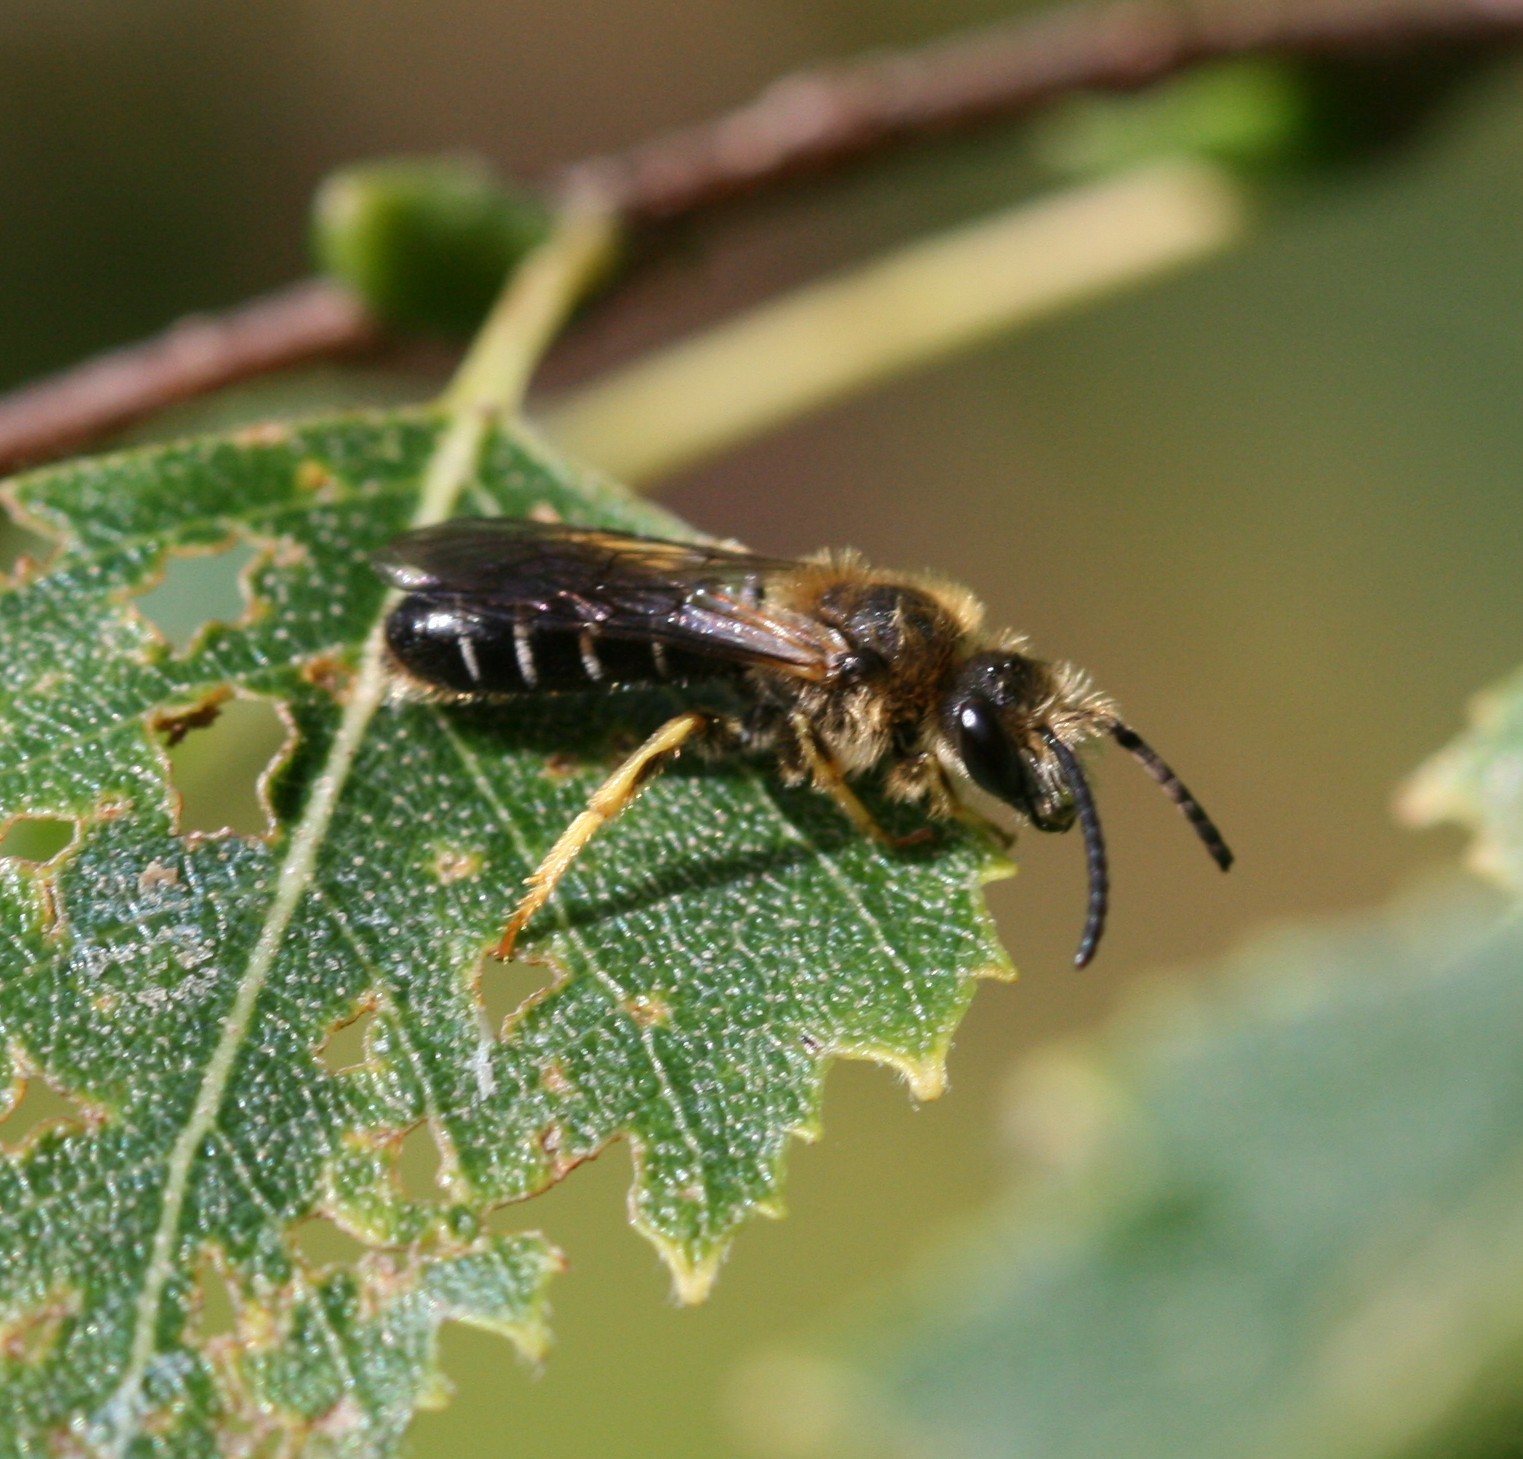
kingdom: Animalia
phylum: Arthropoda
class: Insecta
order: Hymenoptera
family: Halictidae
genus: Halictus
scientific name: Halictus rubicundus
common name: Orange-legged furrow bee
